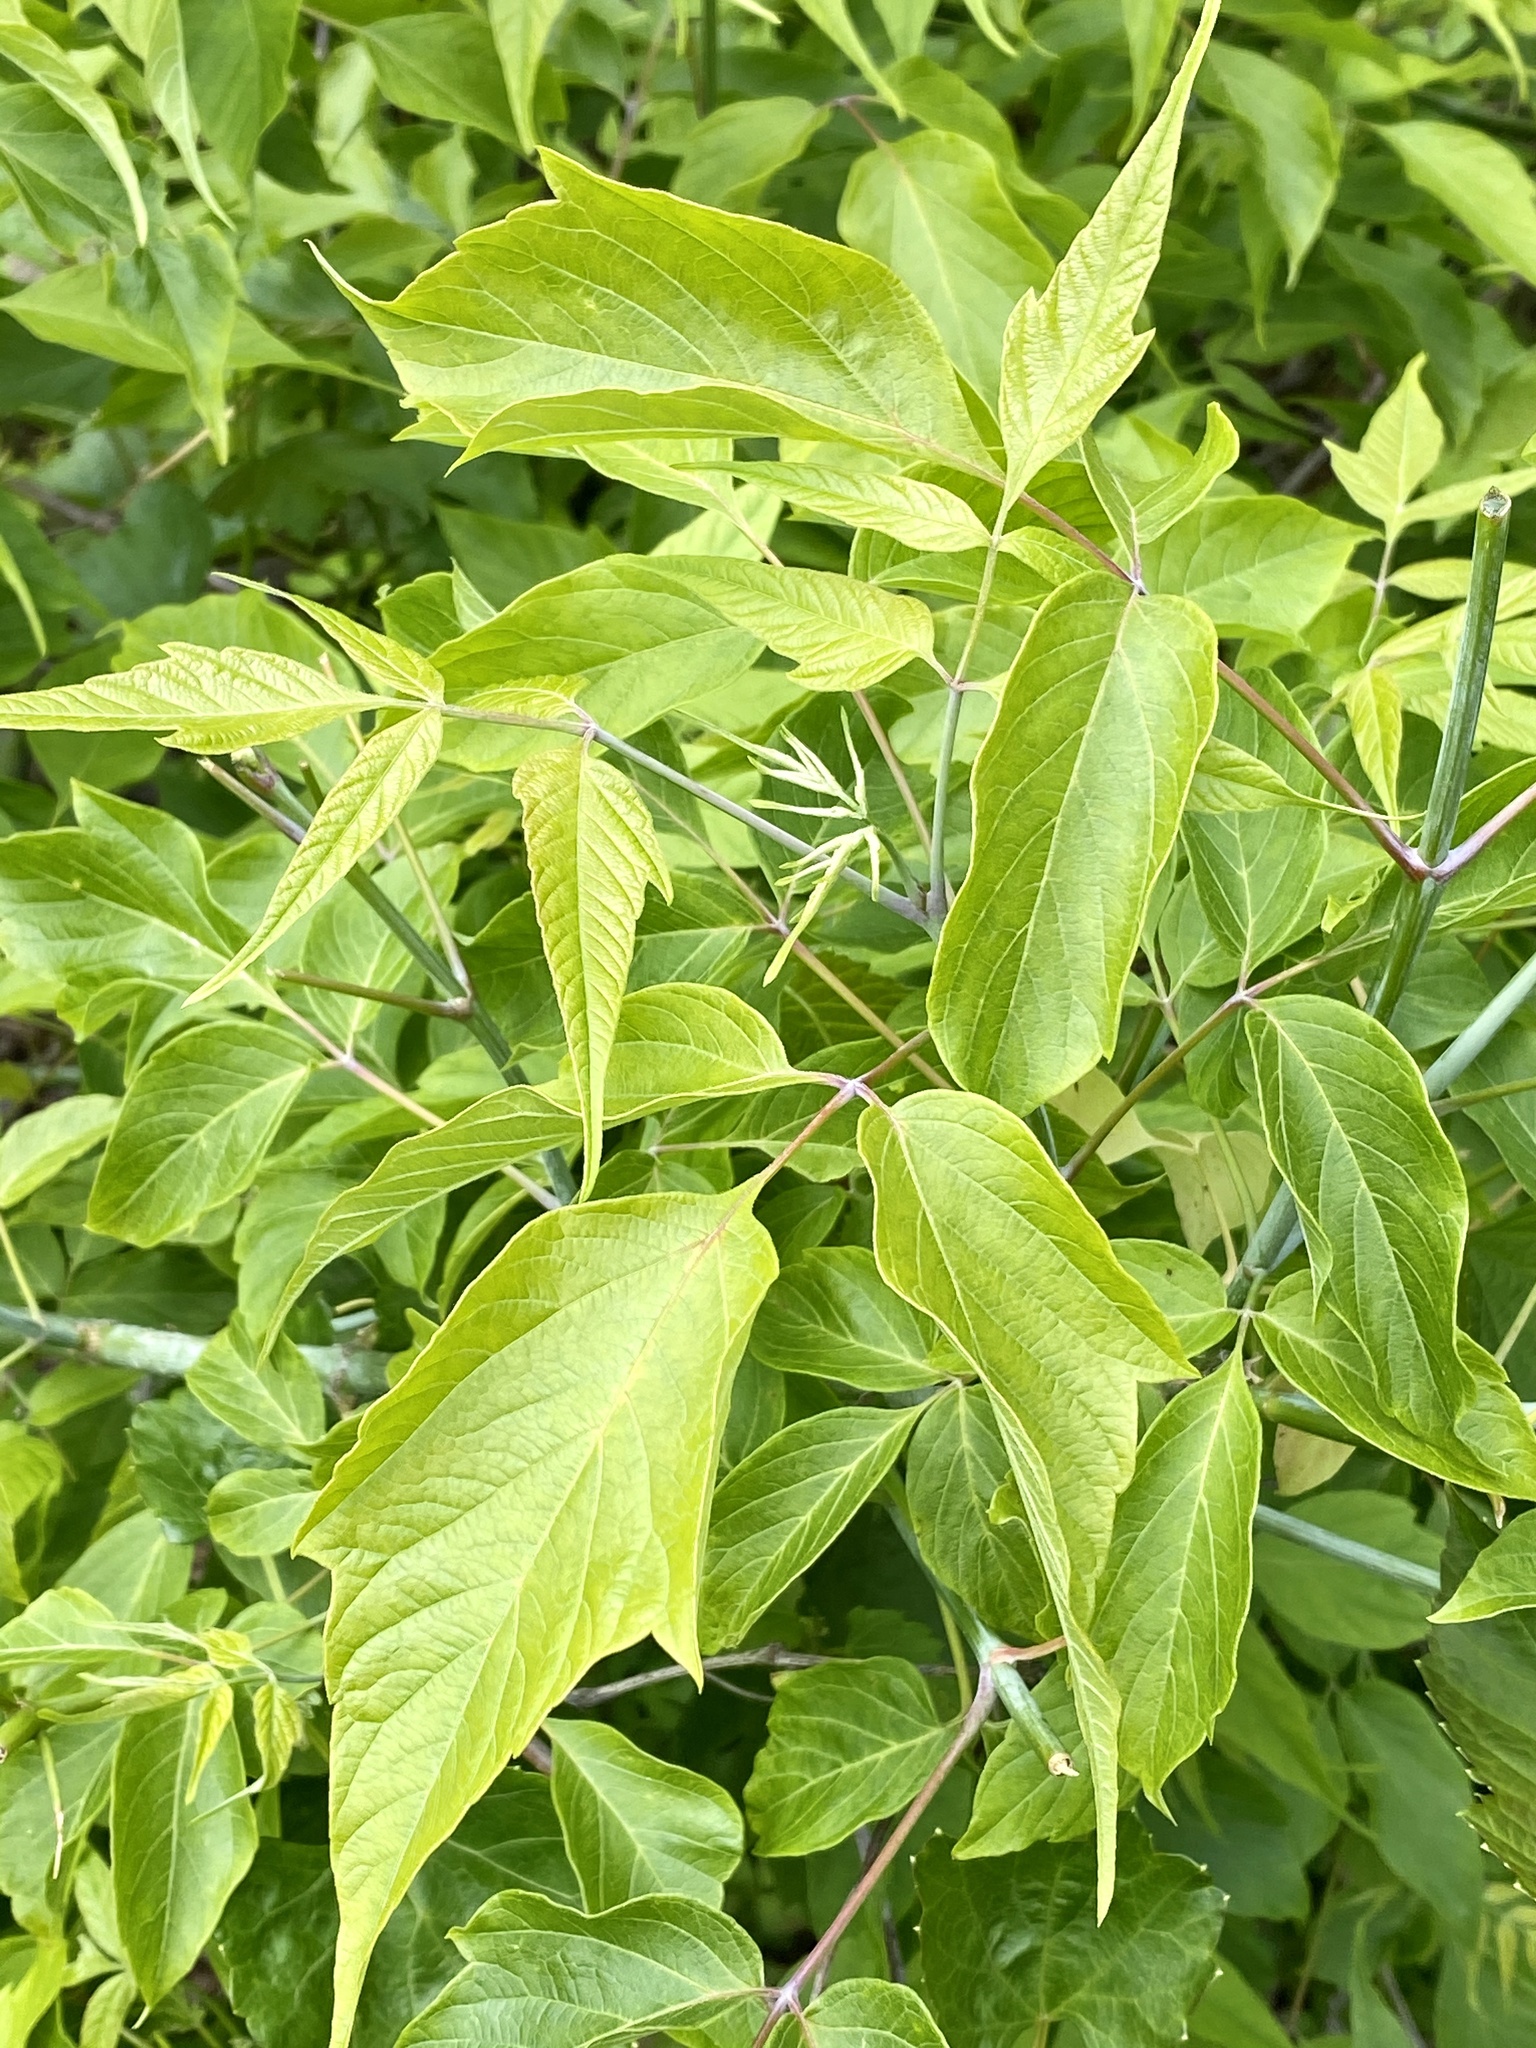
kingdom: Plantae
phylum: Tracheophyta
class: Magnoliopsida
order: Sapindales
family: Sapindaceae
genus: Acer
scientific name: Acer negundo
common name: Ashleaf maple
